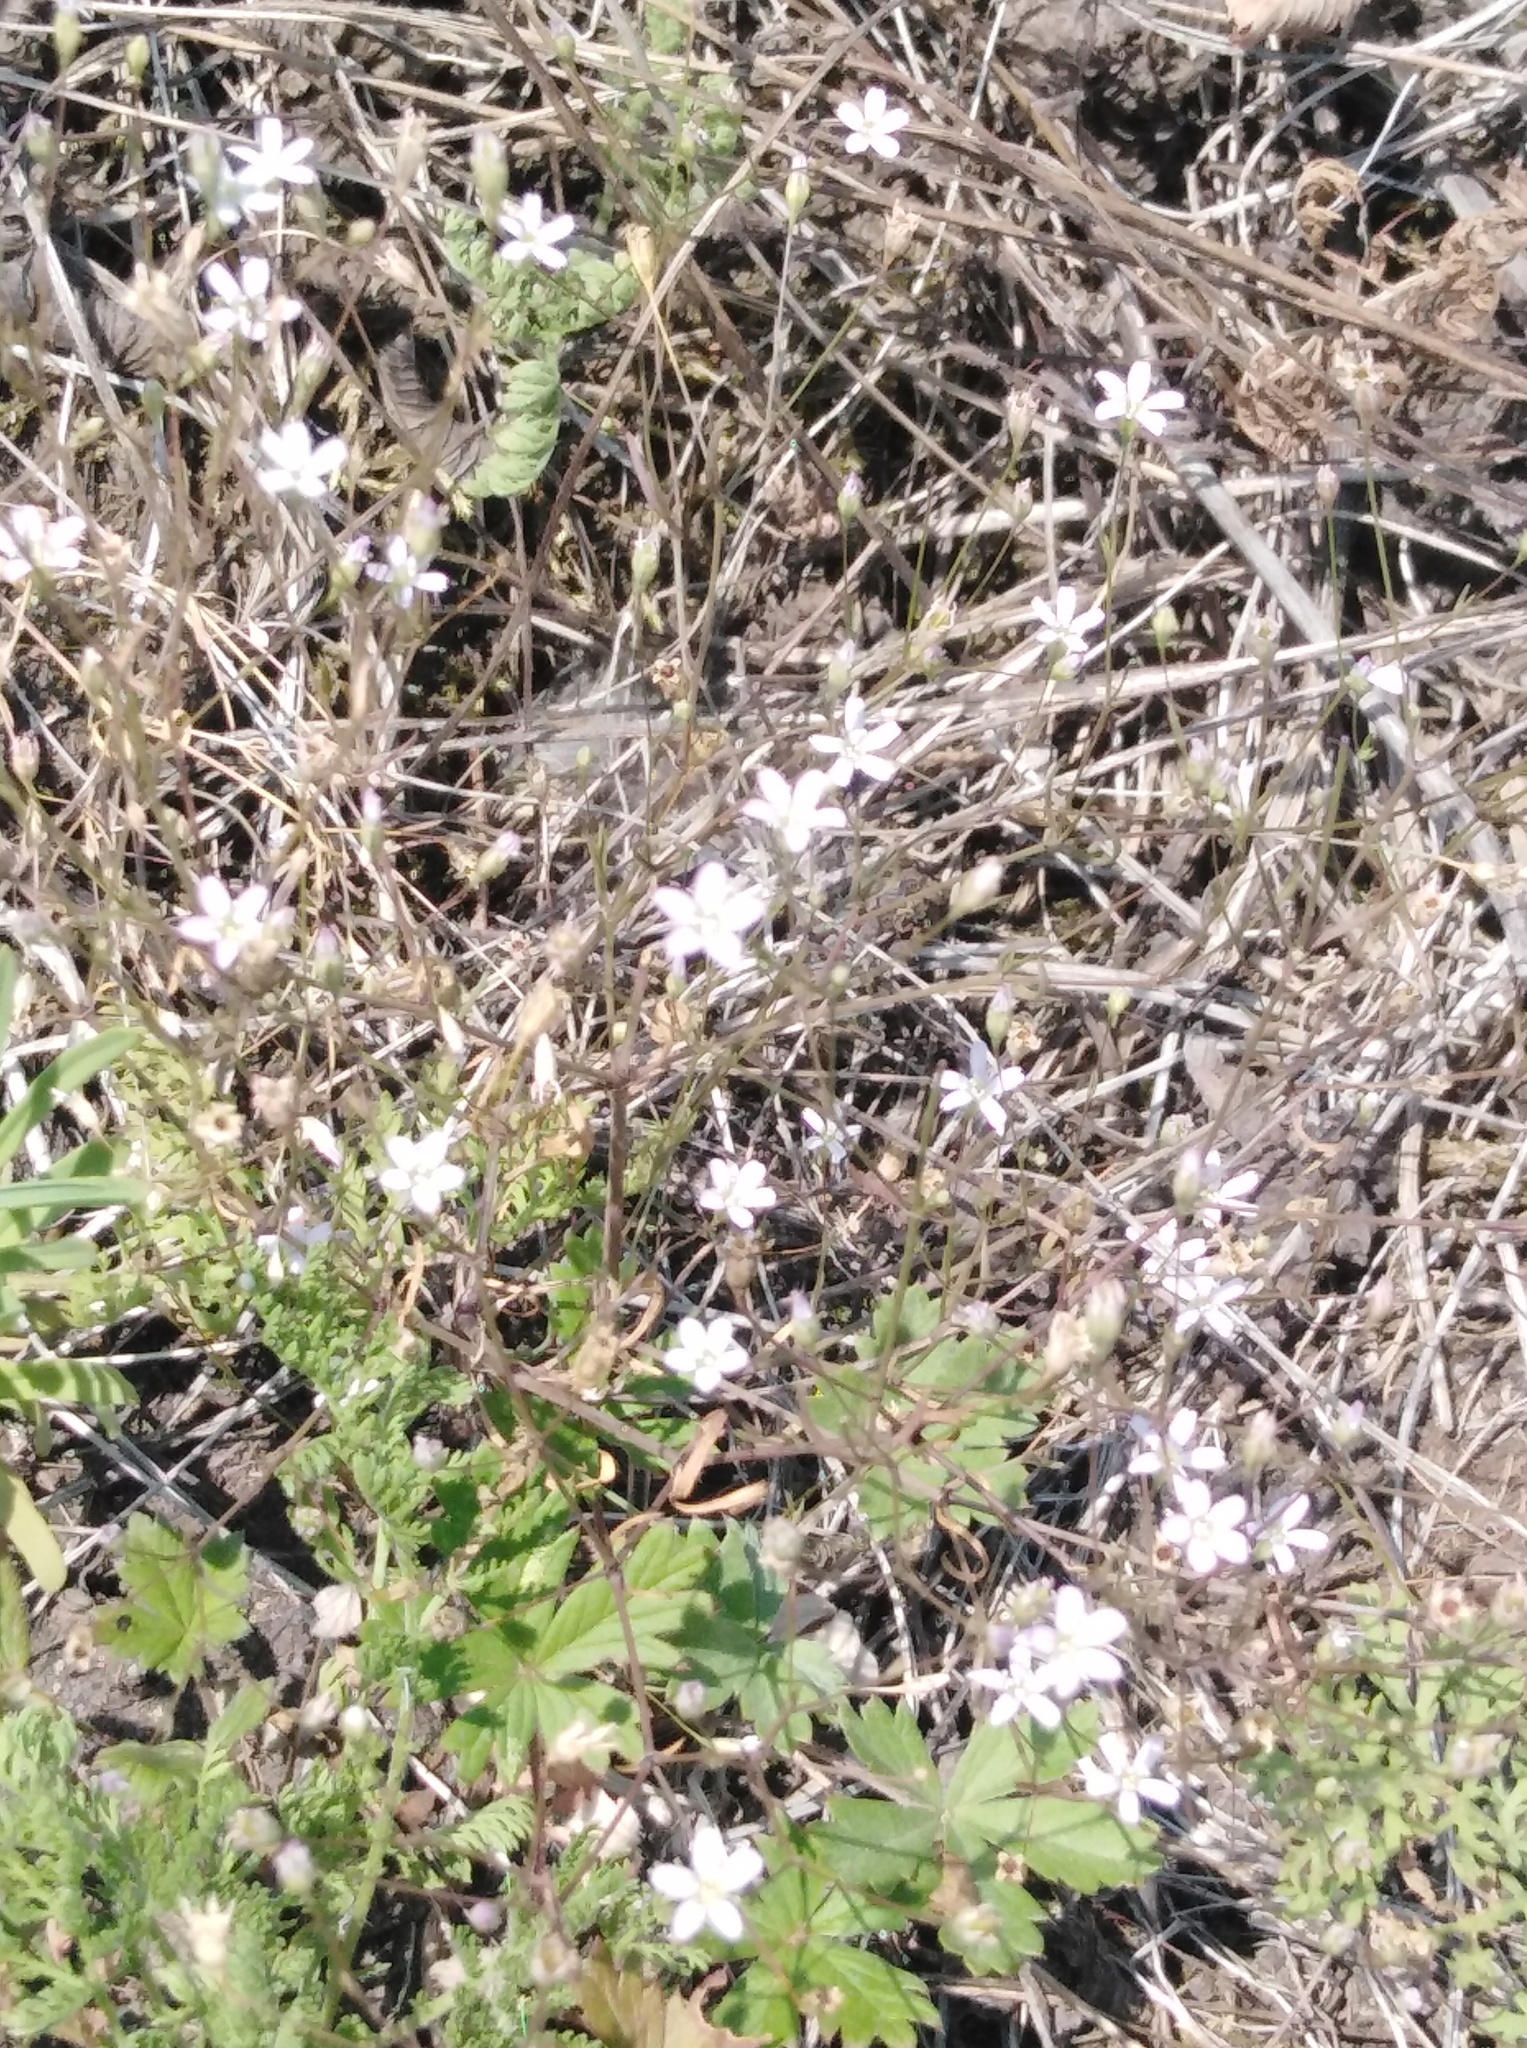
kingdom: Plantae
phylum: Tracheophyta
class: Magnoliopsida
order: Caryophyllales
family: Caryophyllaceae
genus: Psammophiliella
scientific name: Psammophiliella muralis
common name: Cushion baby's-breath
